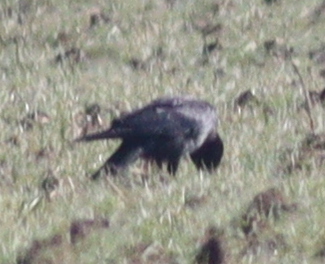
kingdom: Animalia
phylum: Chordata
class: Aves
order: Passeriformes
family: Corvidae
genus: Corvus
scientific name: Corvus cornix
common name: Hooded crow
